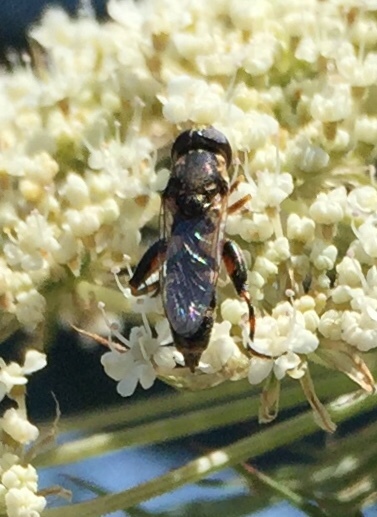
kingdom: Animalia
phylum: Arthropoda
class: Insecta
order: Diptera
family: Syrphidae
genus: Syritta
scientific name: Syritta pipiens
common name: Hover fly
